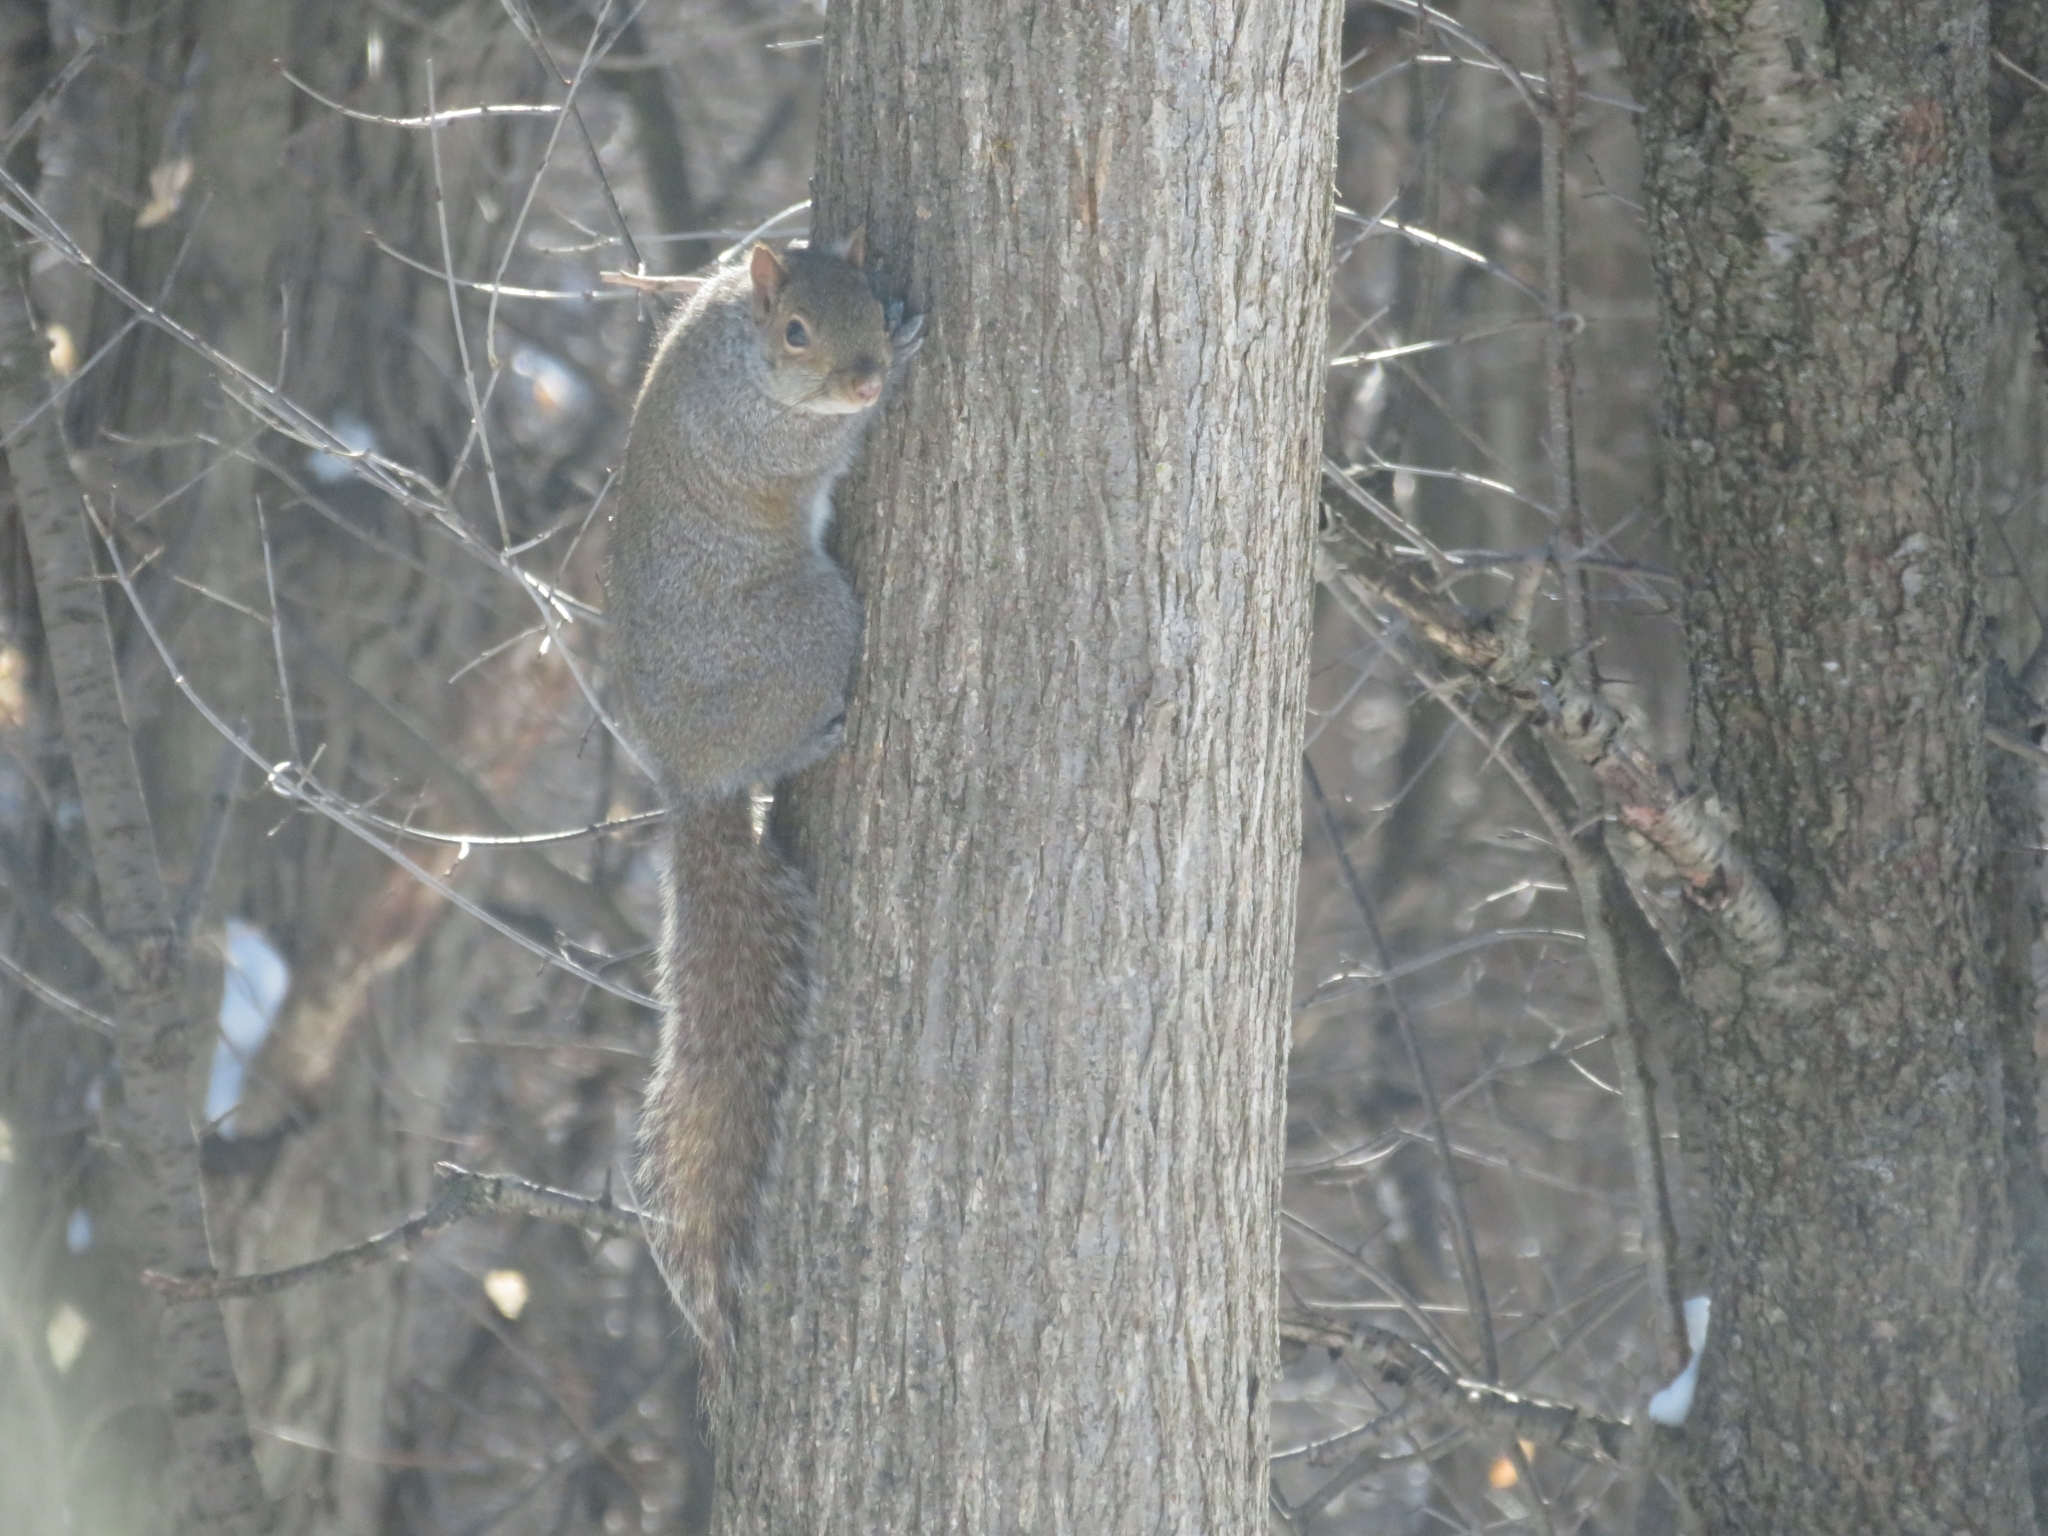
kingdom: Animalia
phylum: Chordata
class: Mammalia
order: Rodentia
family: Sciuridae
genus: Sciurus
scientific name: Sciurus carolinensis
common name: Eastern gray squirrel
